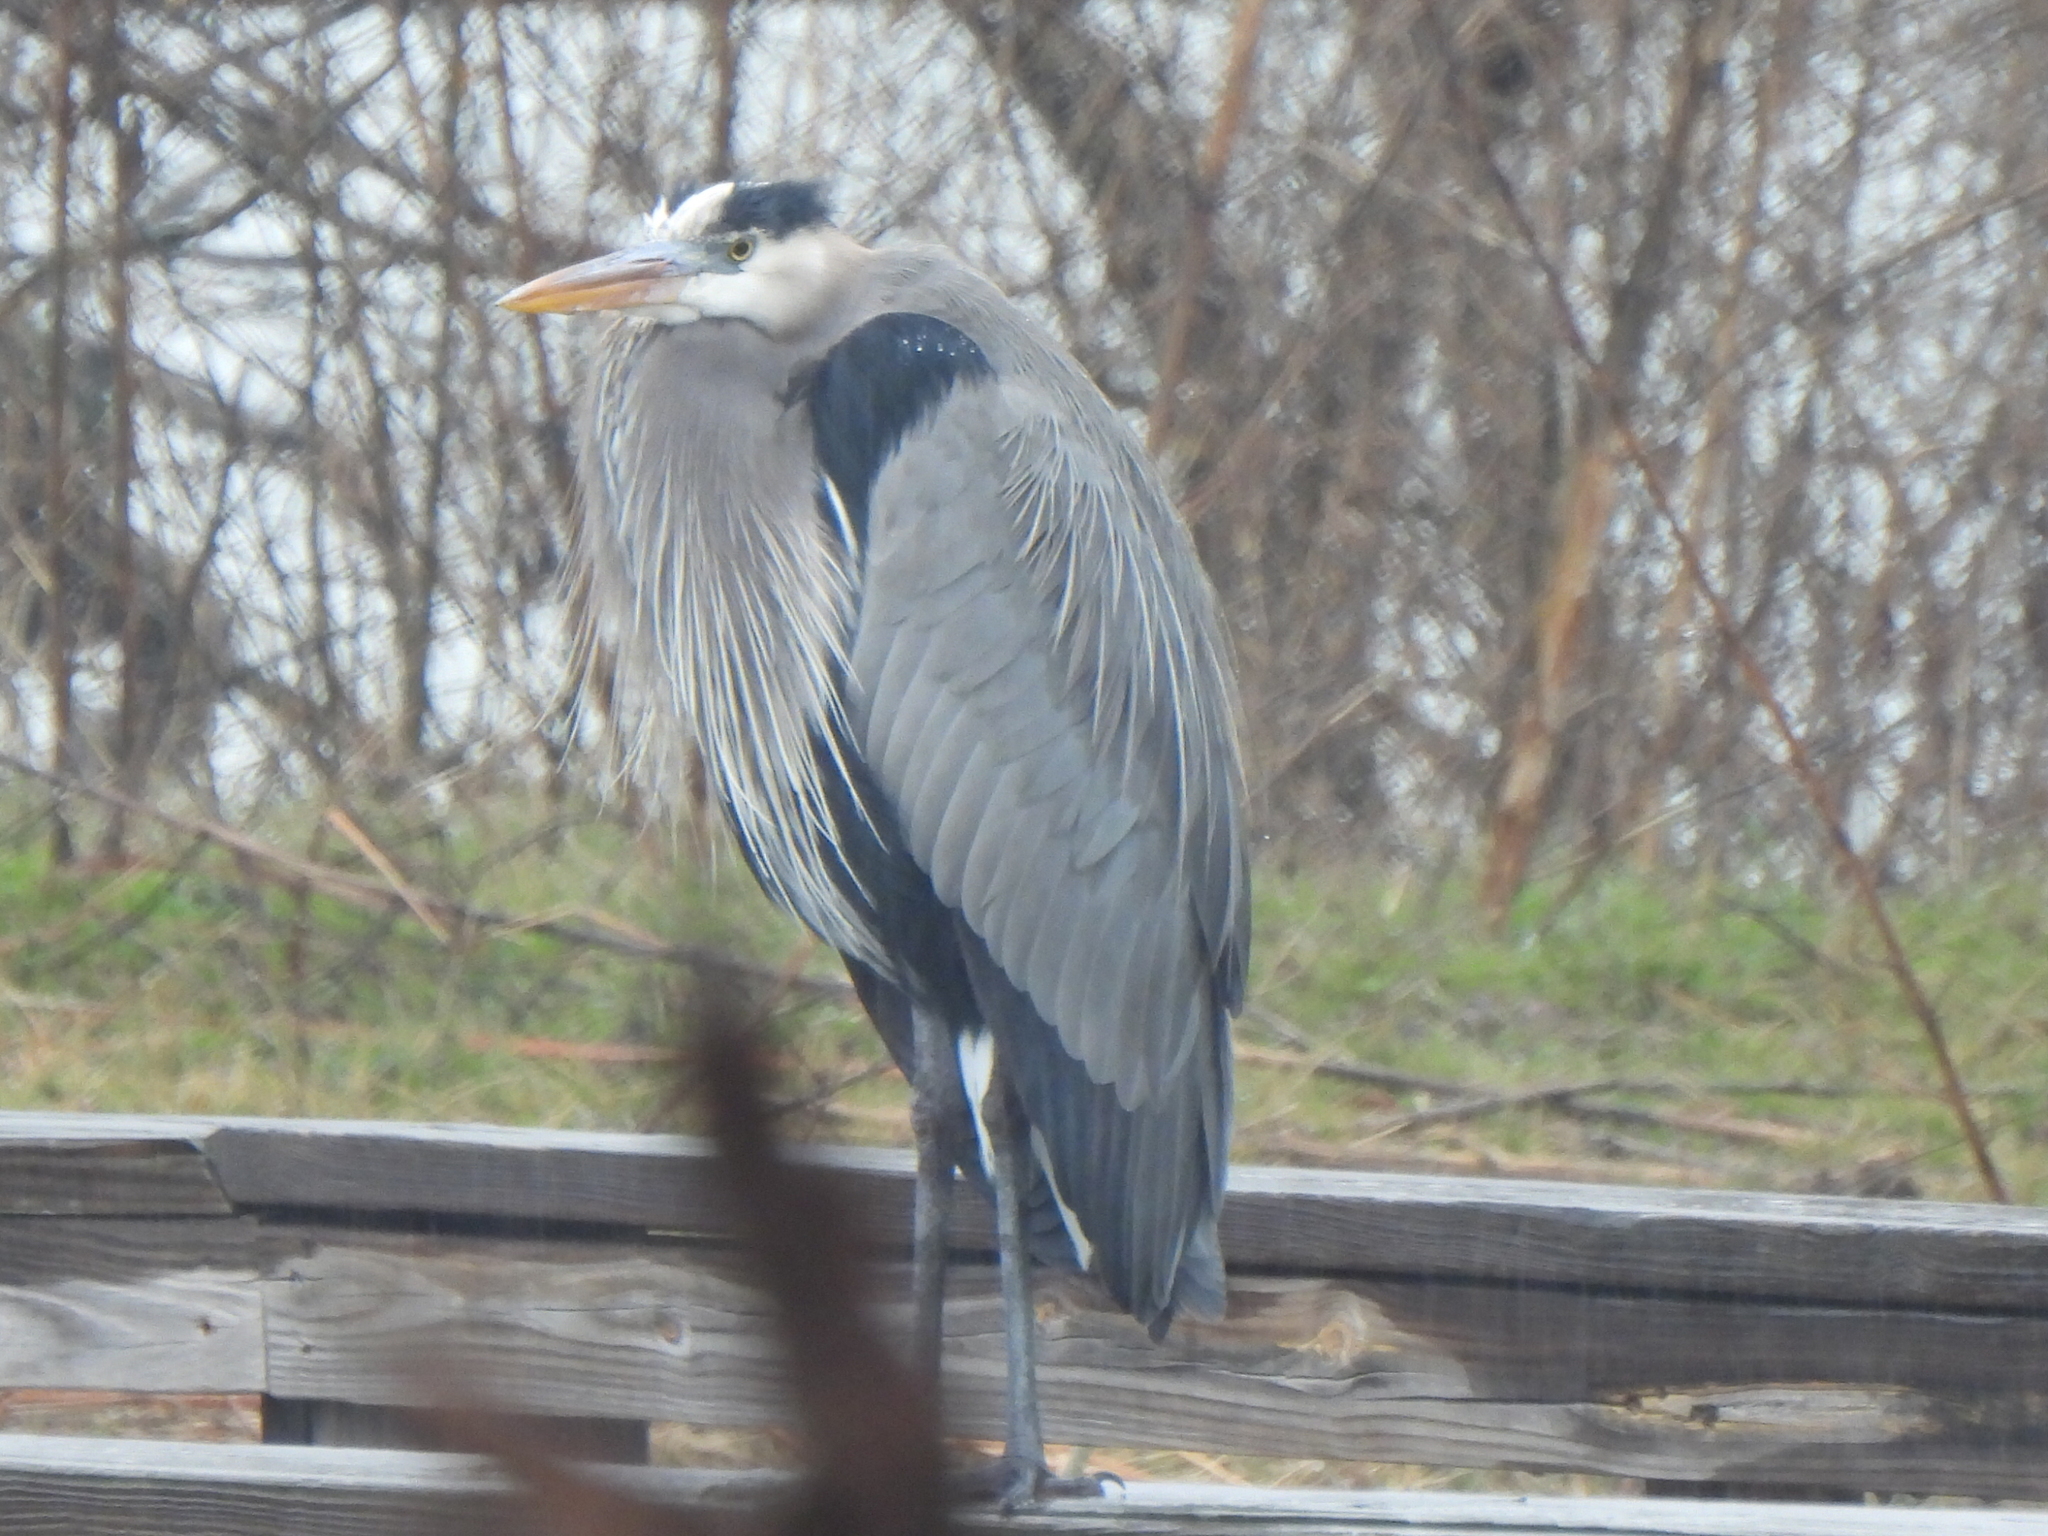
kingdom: Animalia
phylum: Chordata
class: Aves
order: Pelecaniformes
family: Ardeidae
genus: Ardea
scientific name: Ardea herodias
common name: Great blue heron
